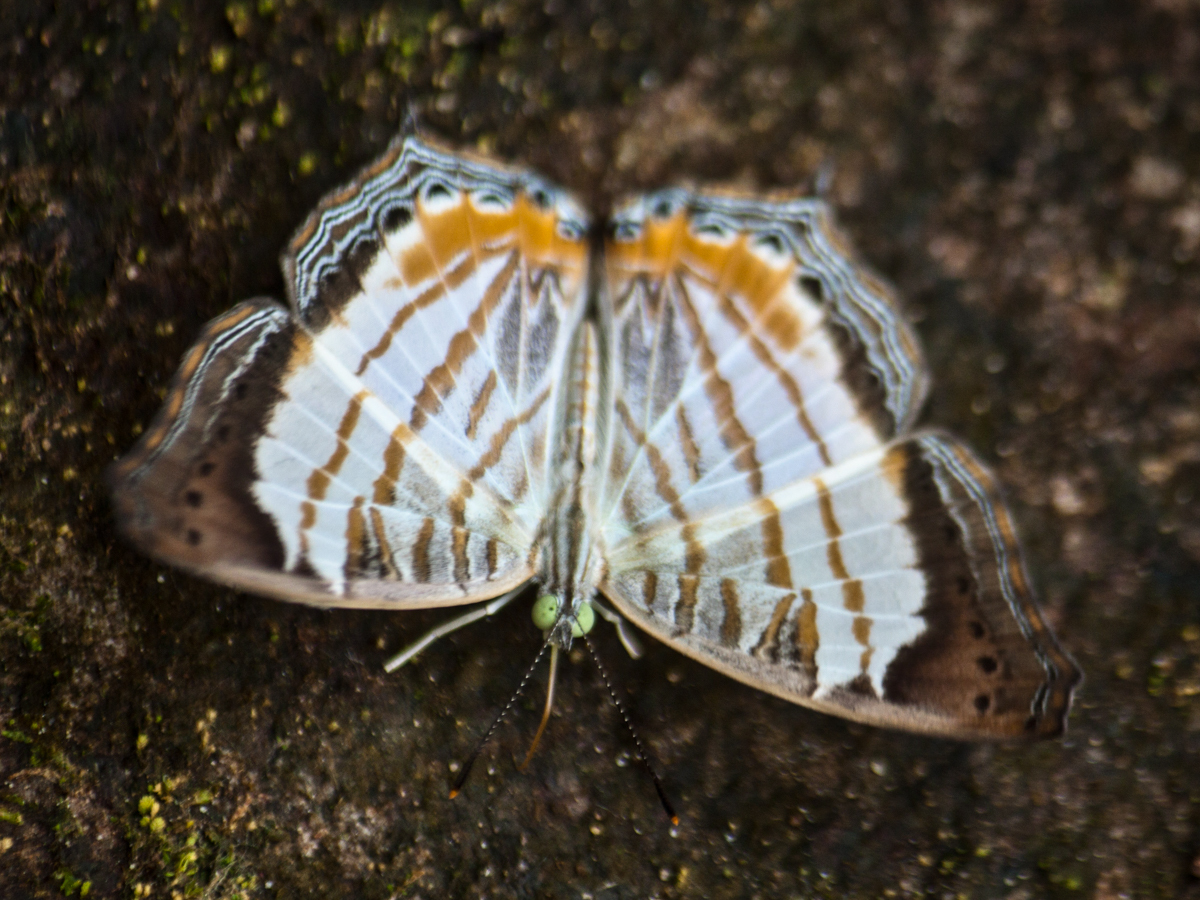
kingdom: Animalia
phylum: Arthropoda
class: Insecta
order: Lepidoptera
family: Nymphalidae
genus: Cyrestis
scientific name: Cyrestis themire
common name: Little mapwing
